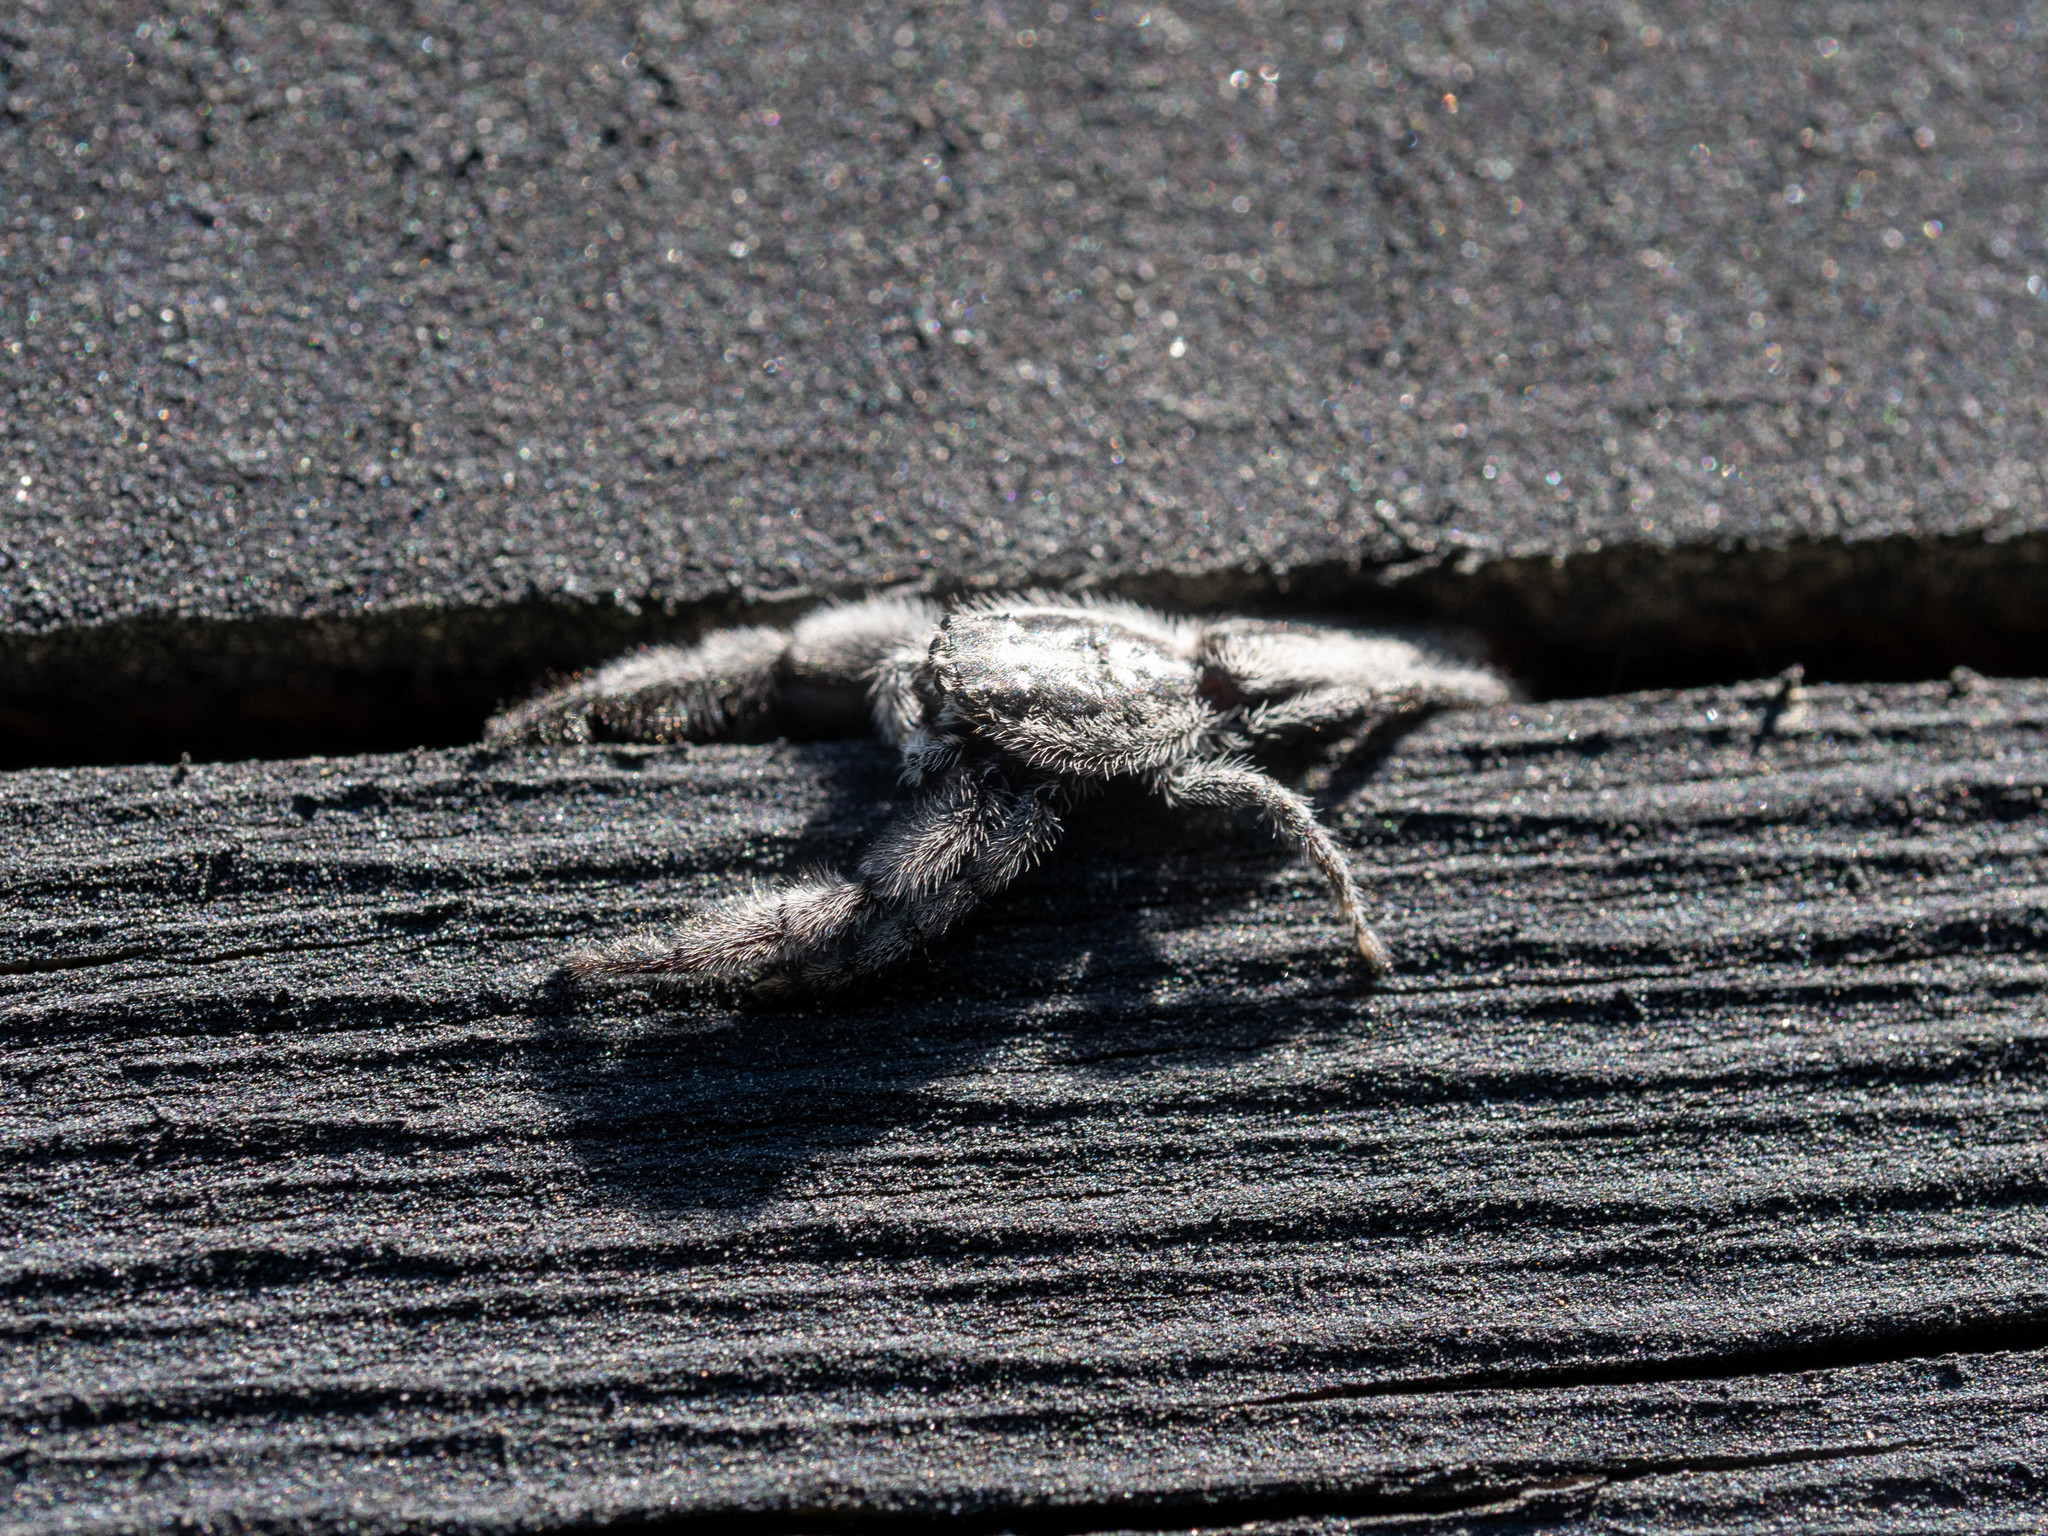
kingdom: Animalia
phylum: Arthropoda
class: Arachnida
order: Araneae
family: Salticidae
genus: Holoplatys
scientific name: Holoplatys apressus
